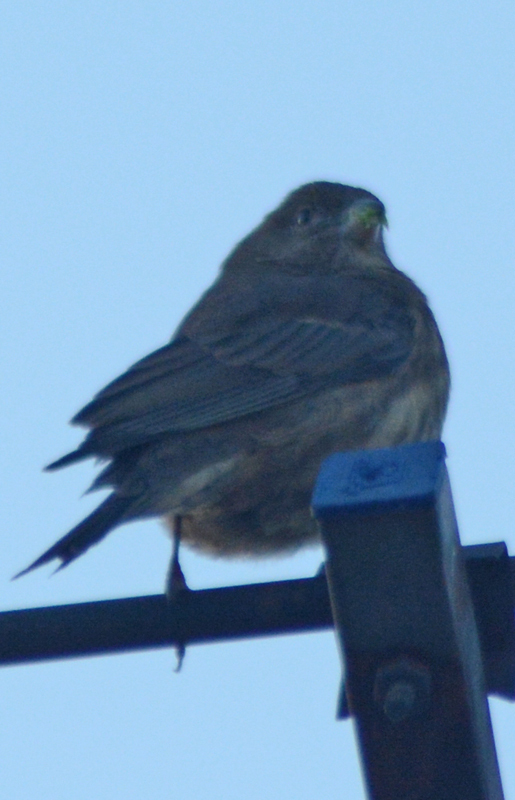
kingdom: Animalia
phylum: Chordata
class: Aves
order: Passeriformes
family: Fringillidae
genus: Haemorhous
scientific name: Haemorhous mexicanus
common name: House finch
